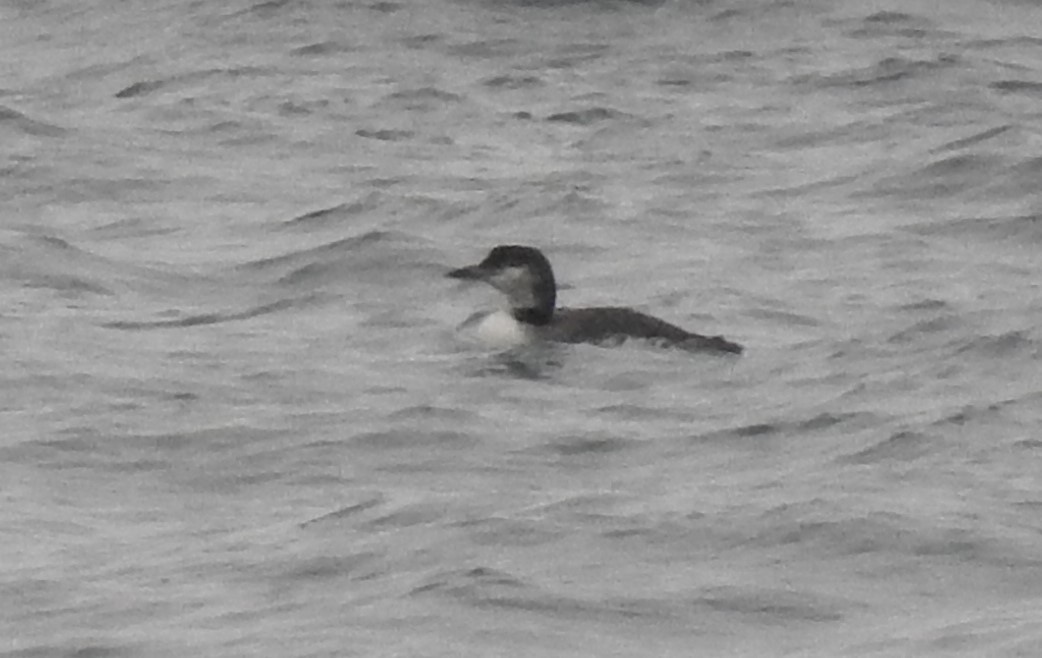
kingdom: Animalia
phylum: Chordata
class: Aves
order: Gaviiformes
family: Gaviidae
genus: Gavia
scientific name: Gavia immer
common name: Common loon
